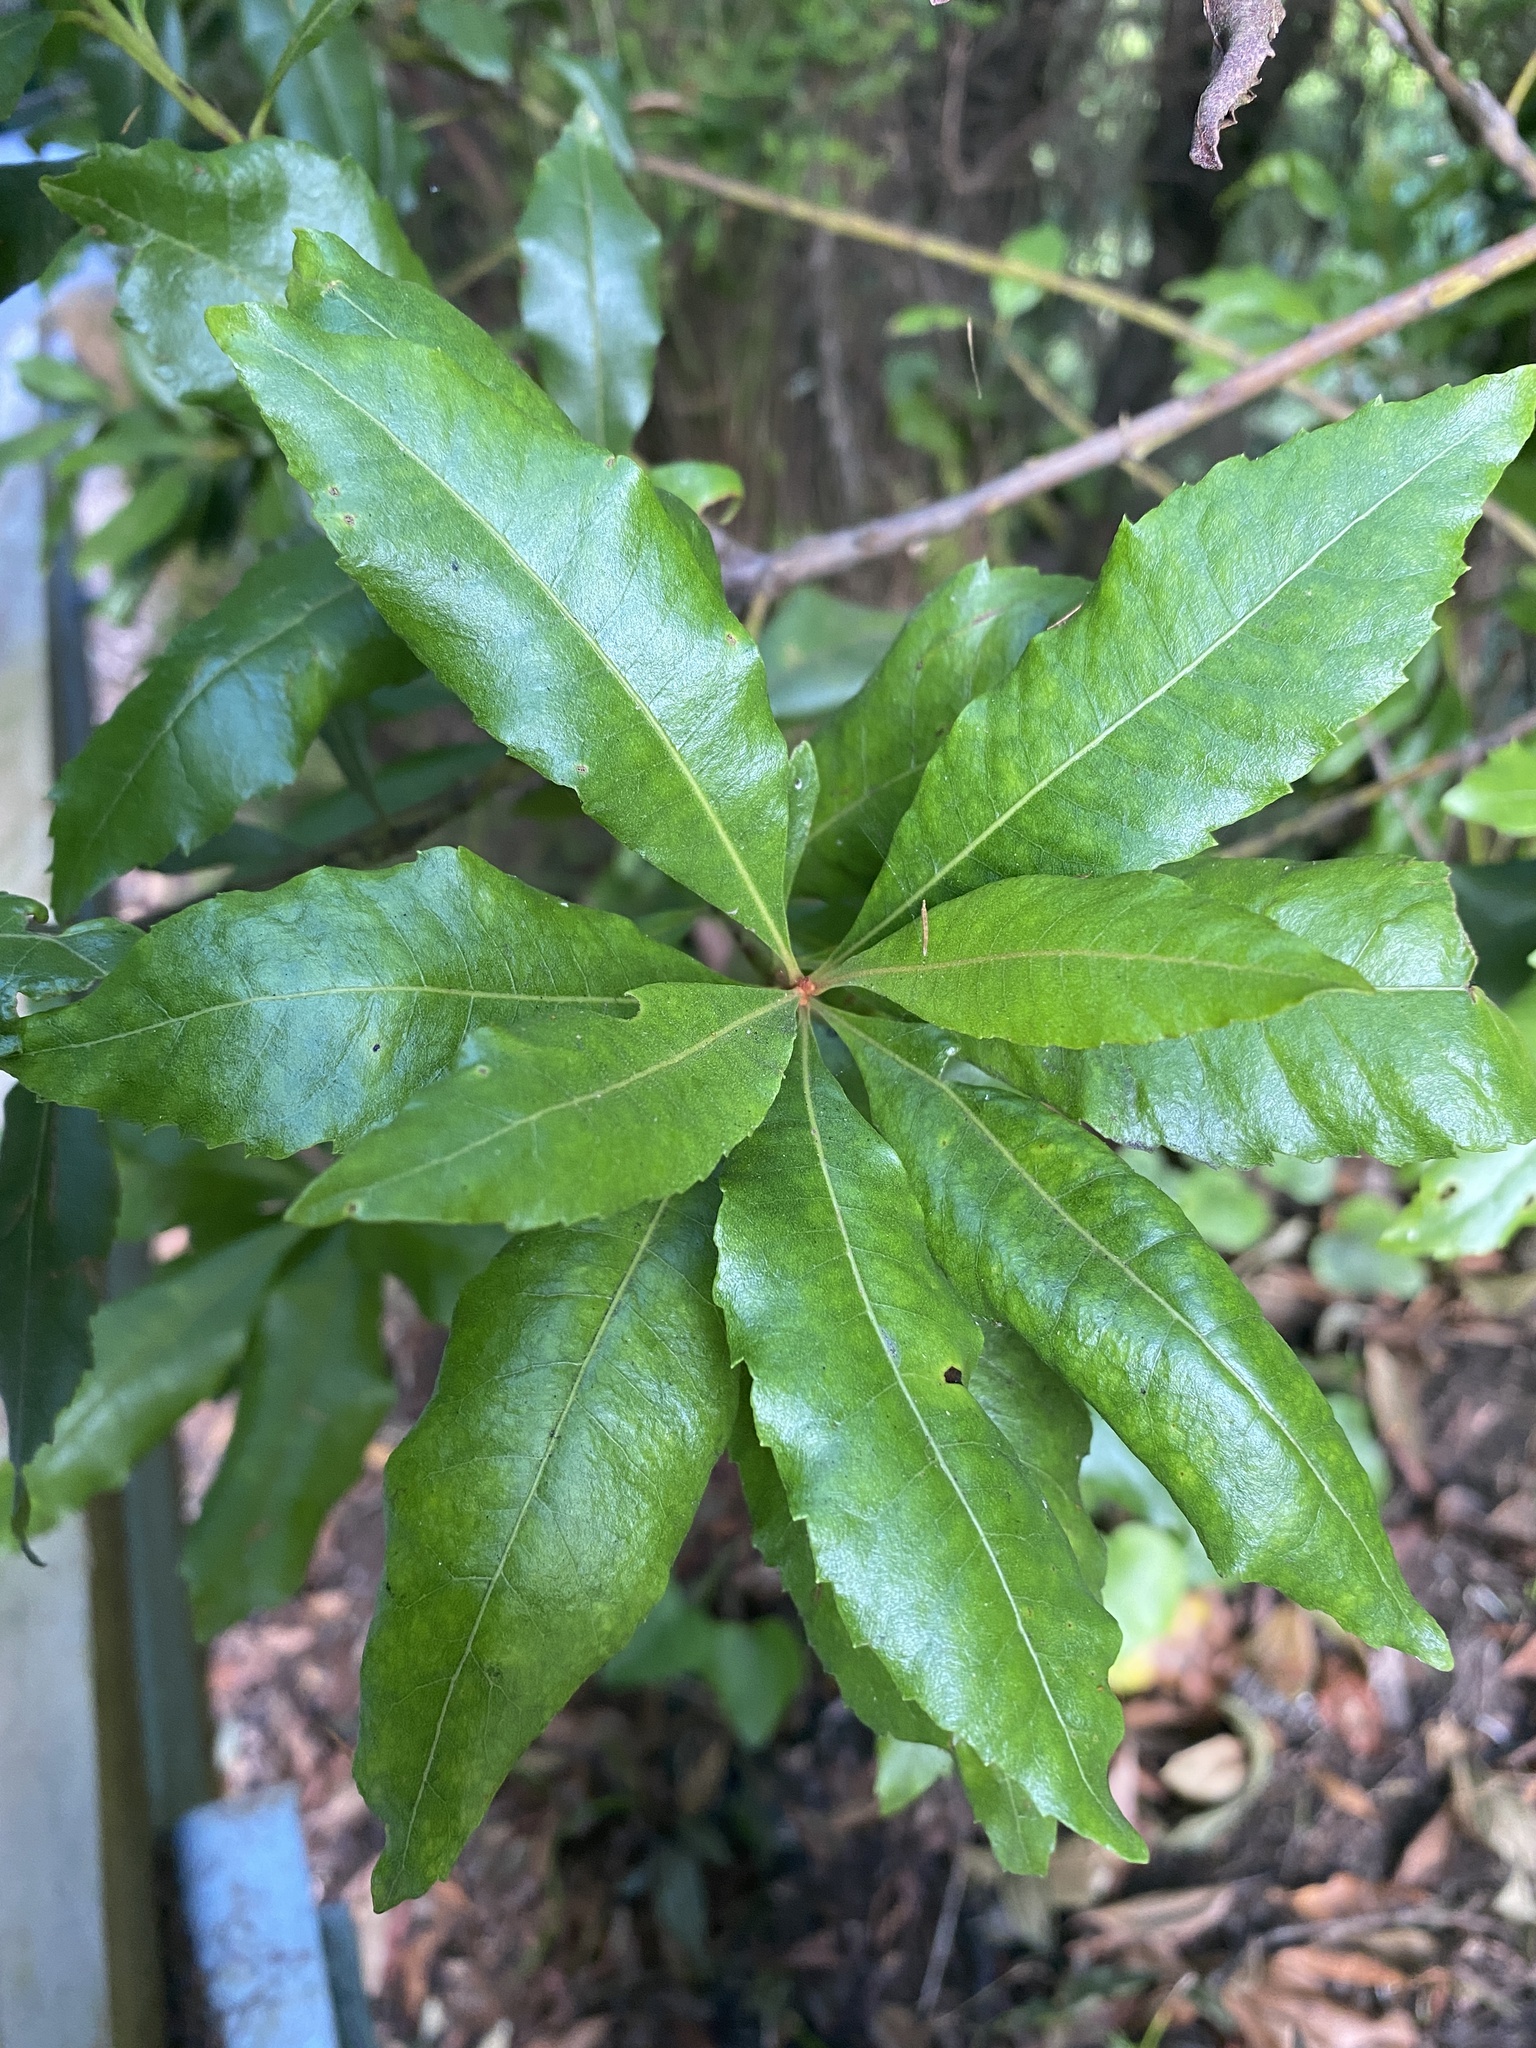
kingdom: Plantae
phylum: Tracheophyta
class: Magnoliopsida
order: Fagales
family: Myricaceae
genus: Morella
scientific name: Morella faya
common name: Firetree
